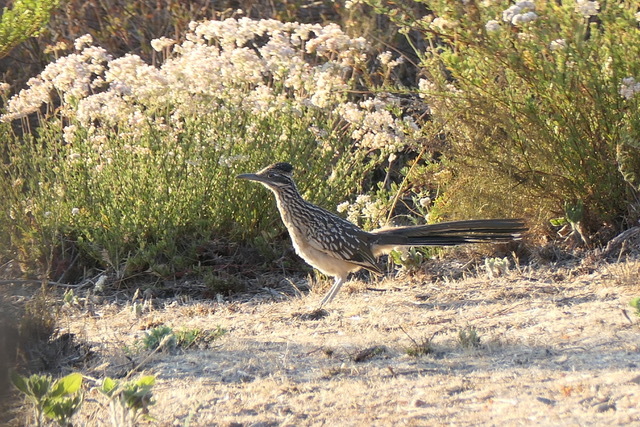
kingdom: Animalia
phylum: Chordata
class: Aves
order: Cuculiformes
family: Cuculidae
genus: Geococcyx
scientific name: Geococcyx californianus
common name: Greater roadrunner
